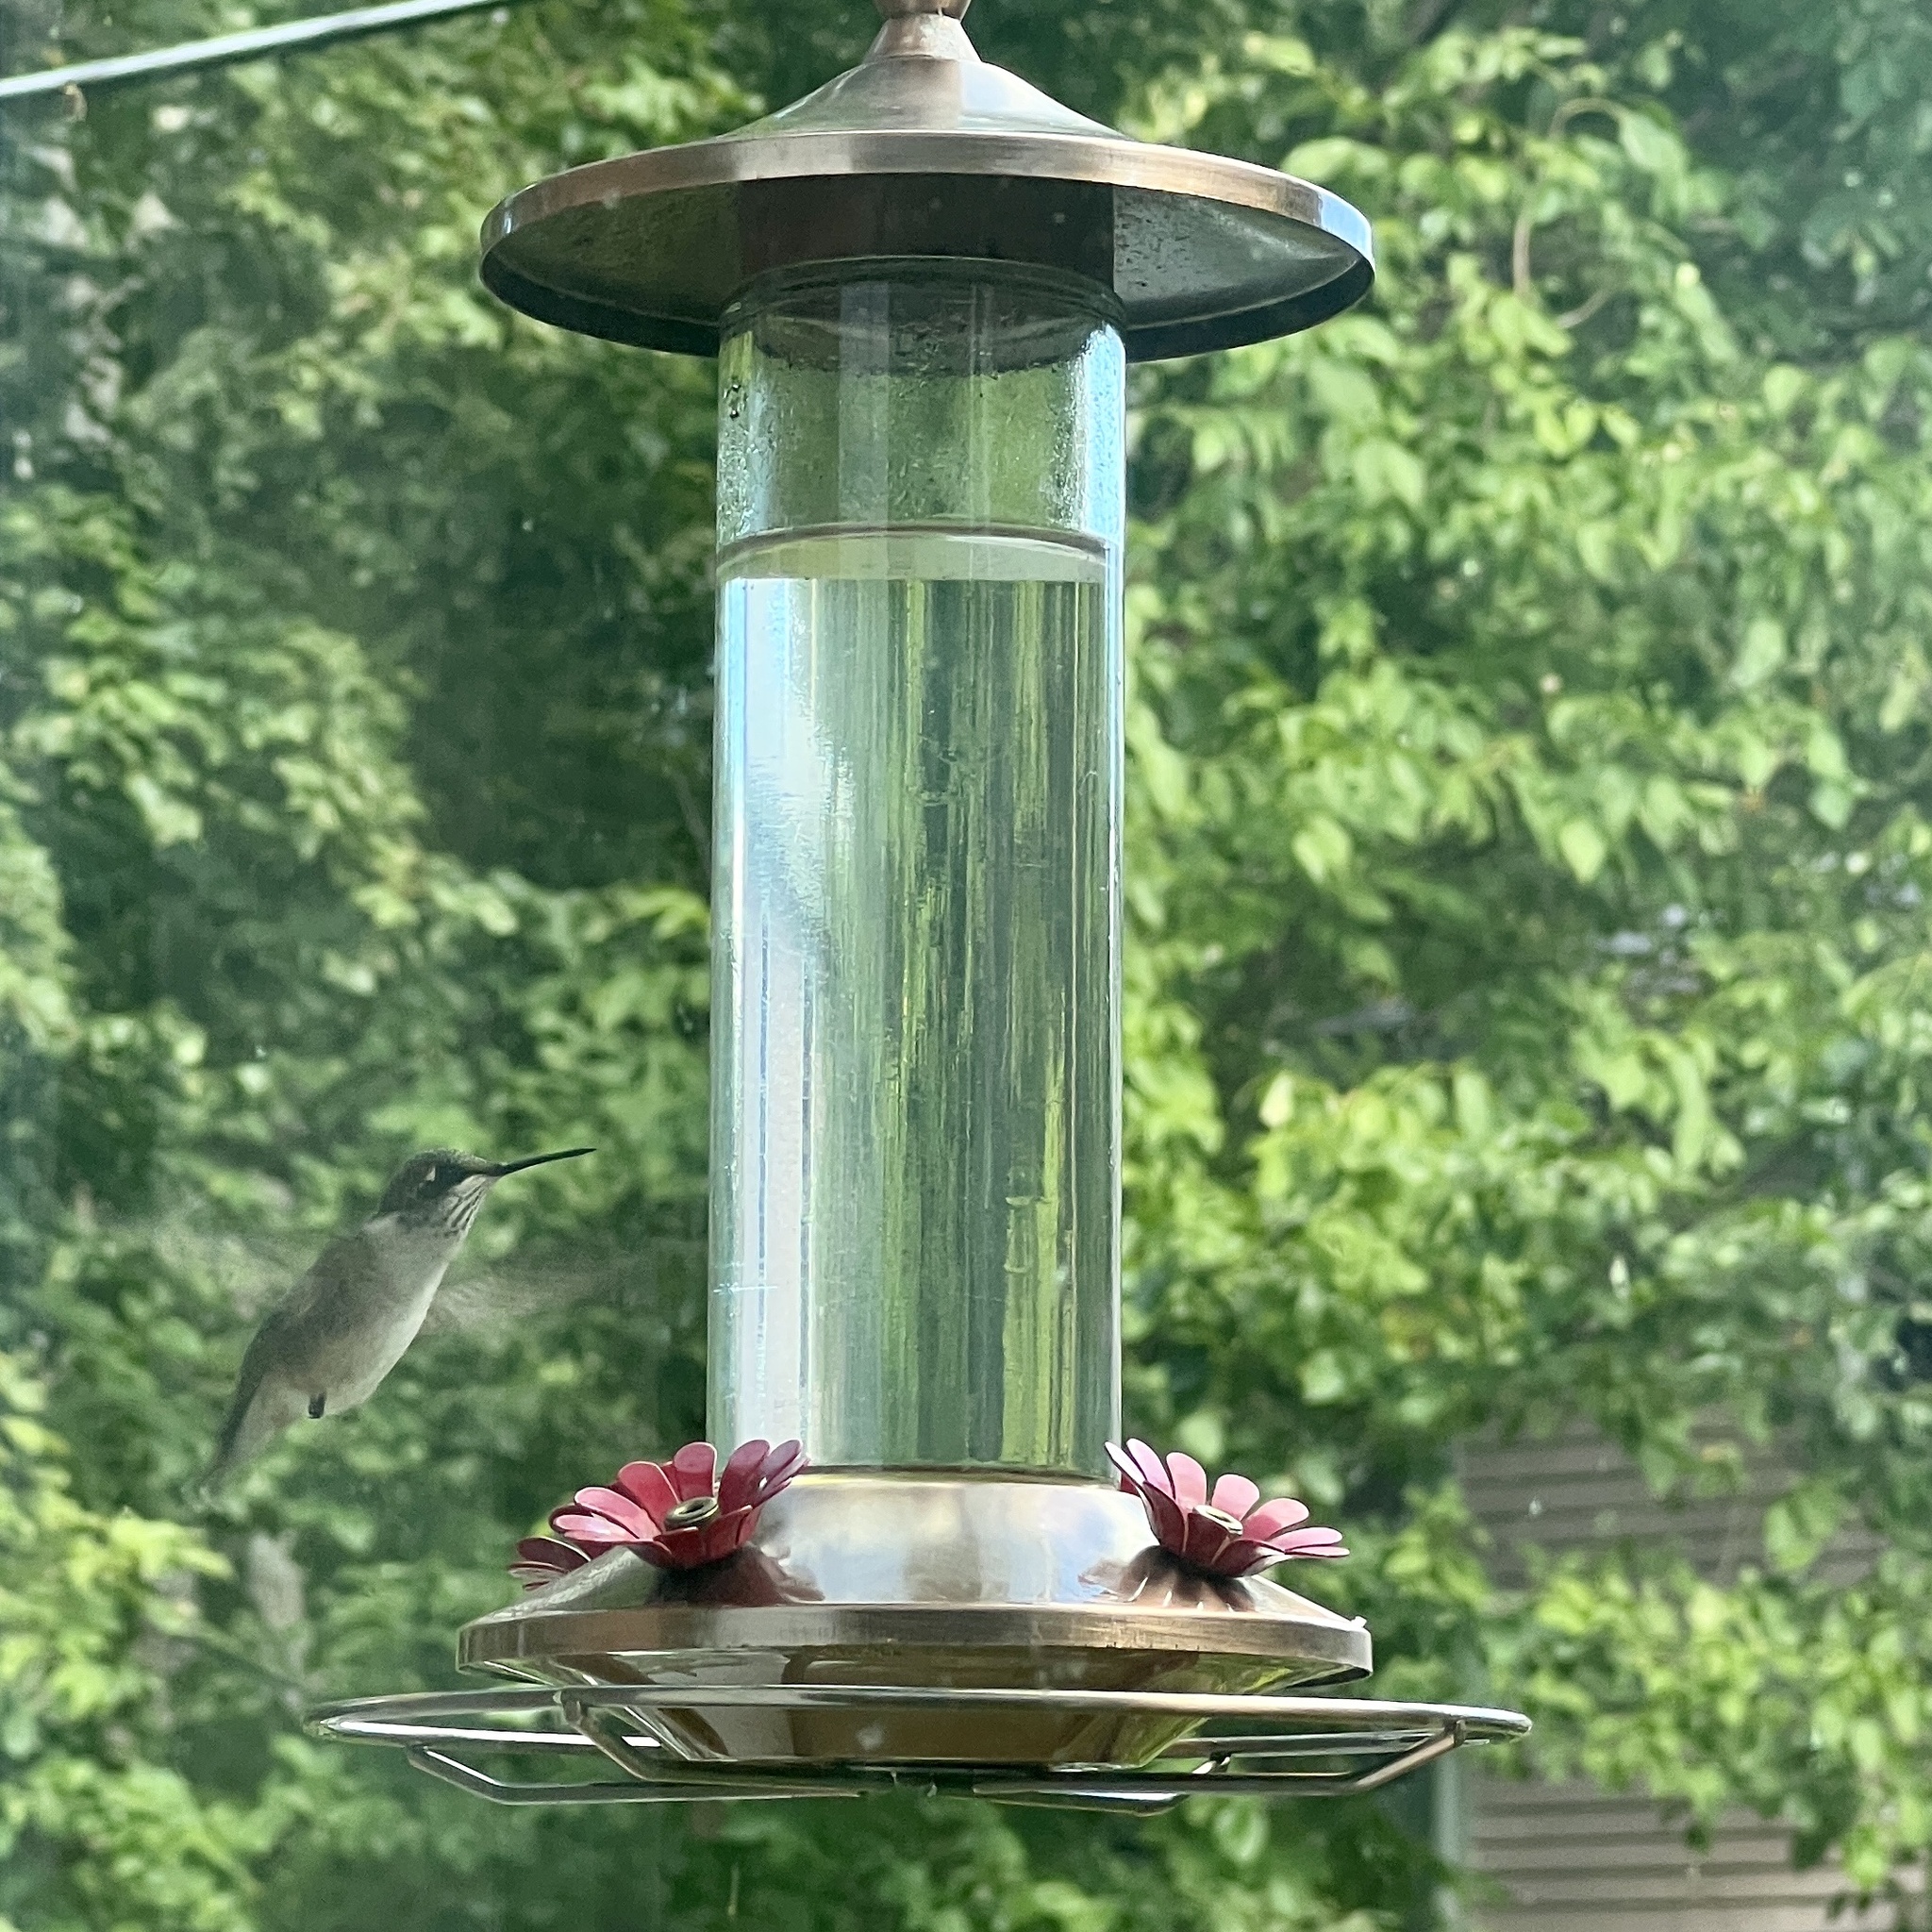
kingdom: Animalia
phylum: Chordata
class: Aves
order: Apodiformes
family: Trochilidae
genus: Archilochus
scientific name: Archilochus colubris
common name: Ruby-throated hummingbird
